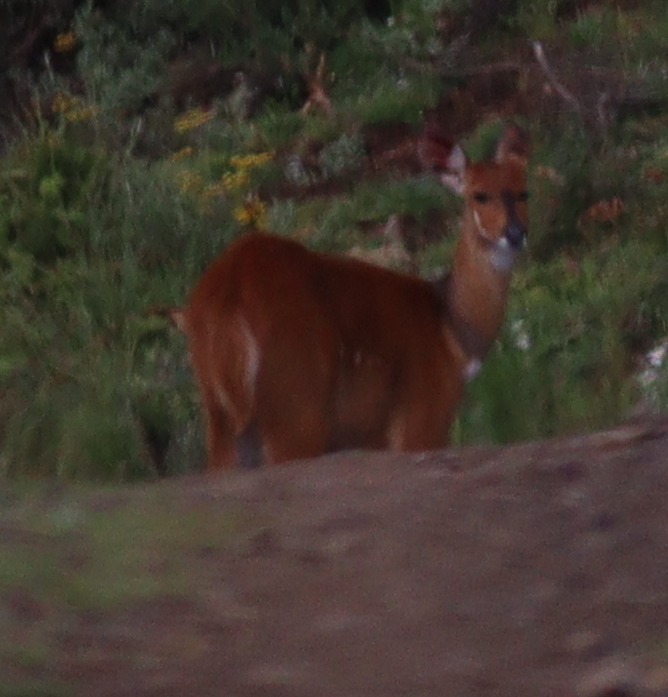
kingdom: Animalia
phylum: Chordata
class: Mammalia
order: Artiodactyla
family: Bovidae
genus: Tragelaphus
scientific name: Tragelaphus scriptus
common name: Bushbuck
